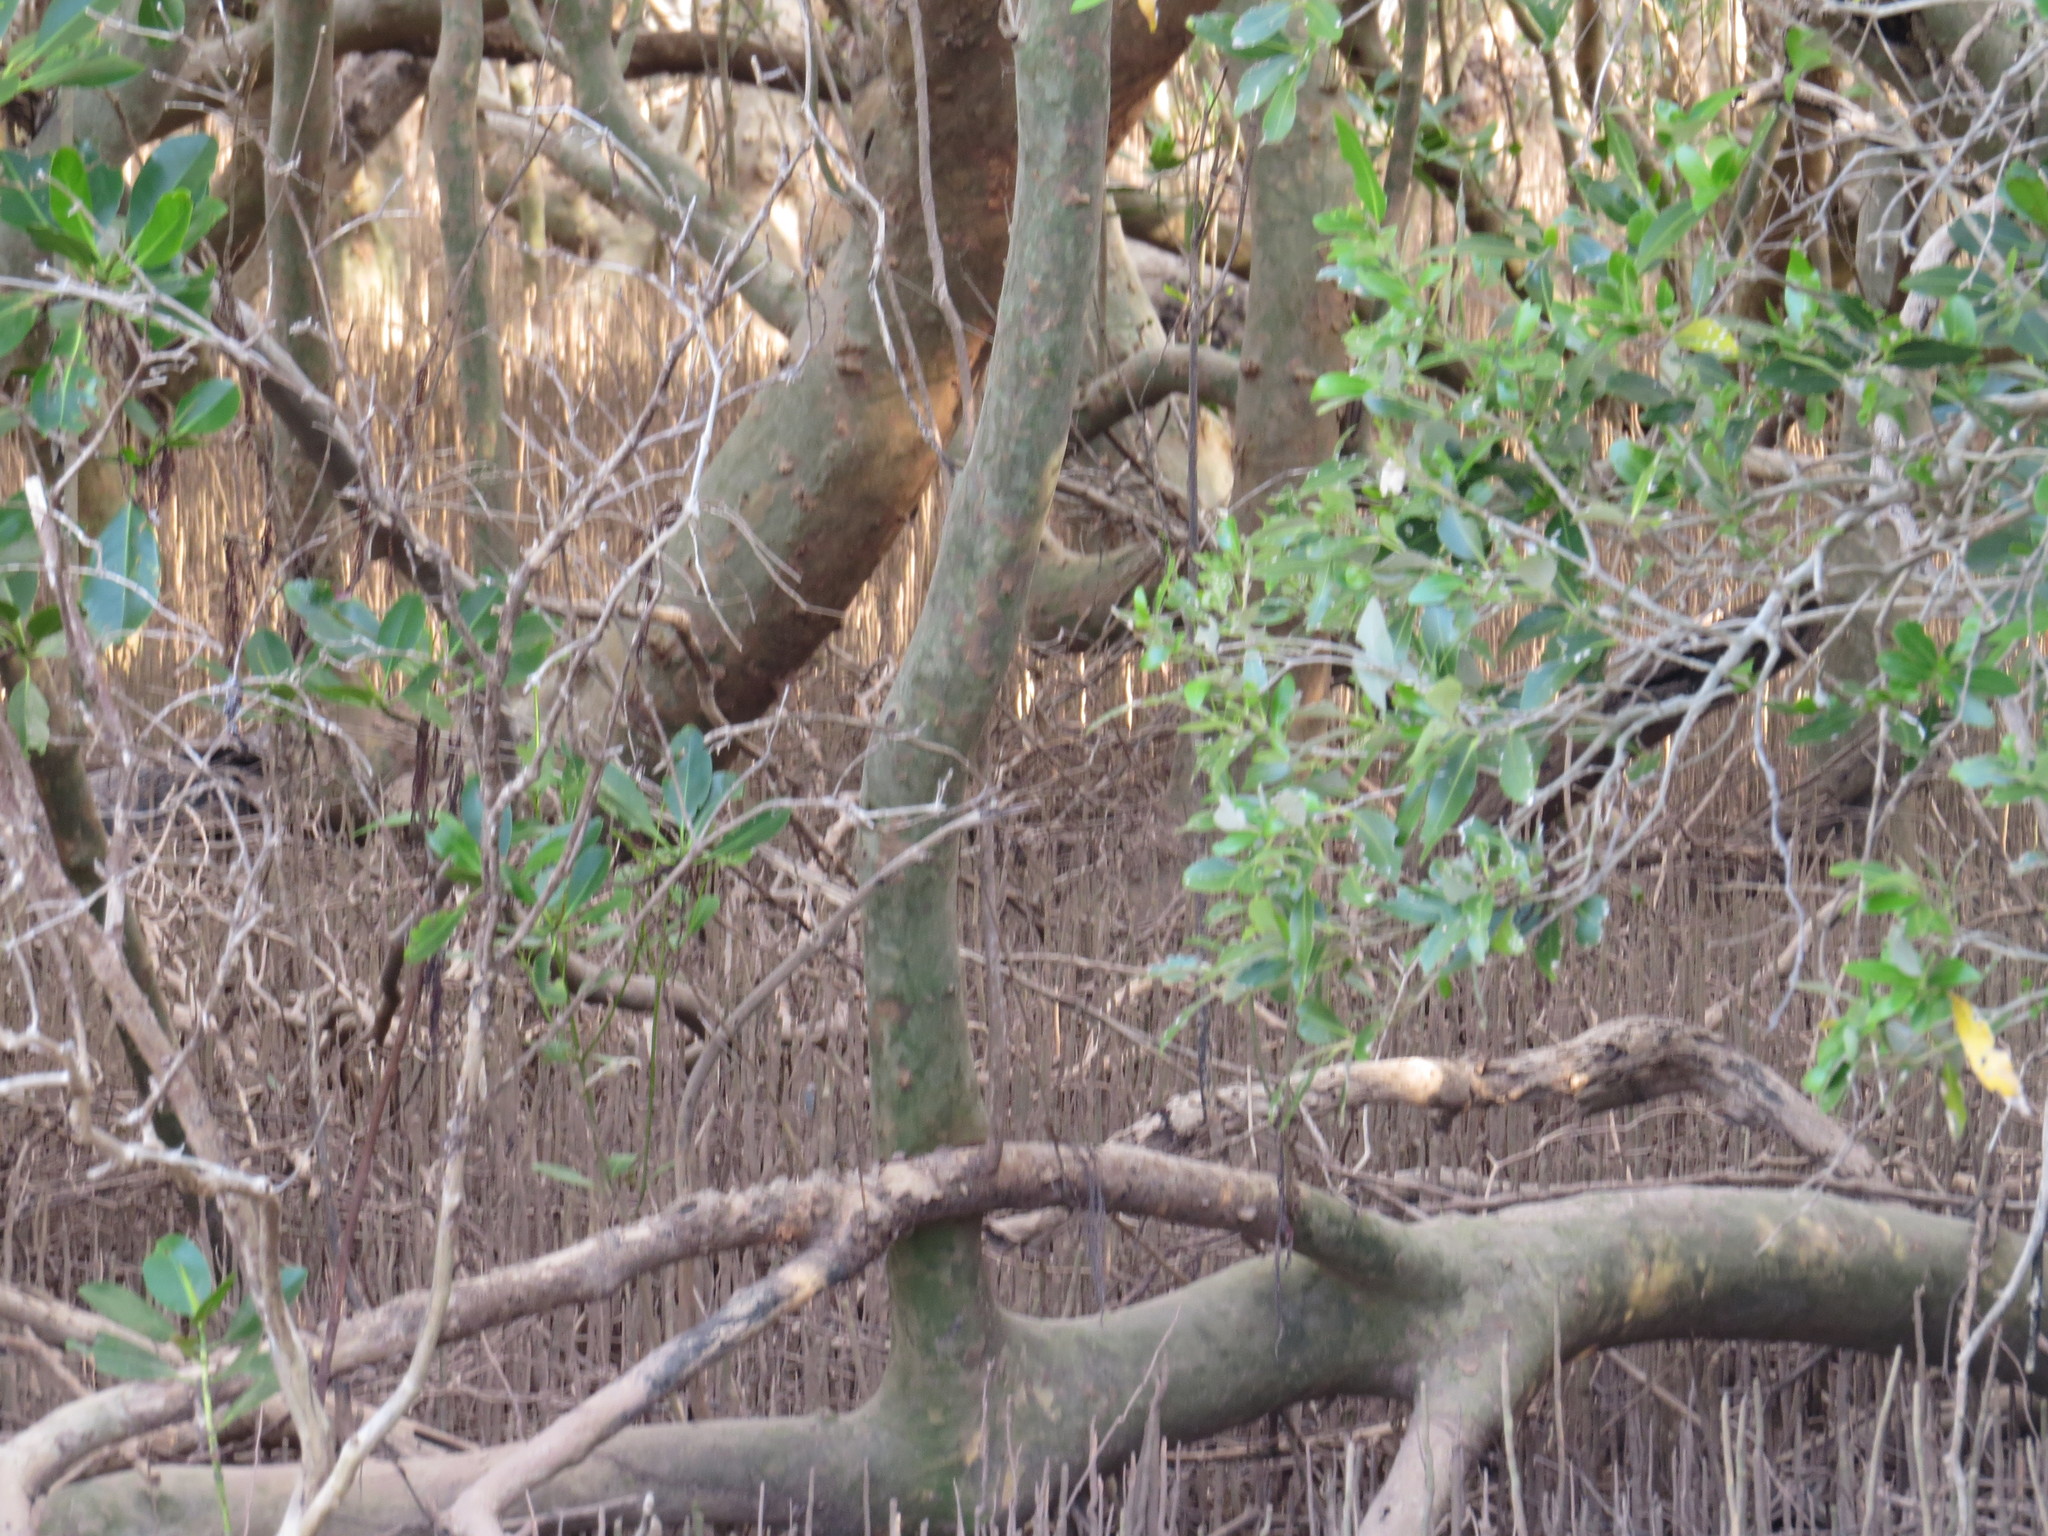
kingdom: Plantae
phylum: Tracheophyta
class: Magnoliopsida
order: Lamiales
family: Acanthaceae
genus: Avicennia
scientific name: Avicennia marina
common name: Gray mangrove
